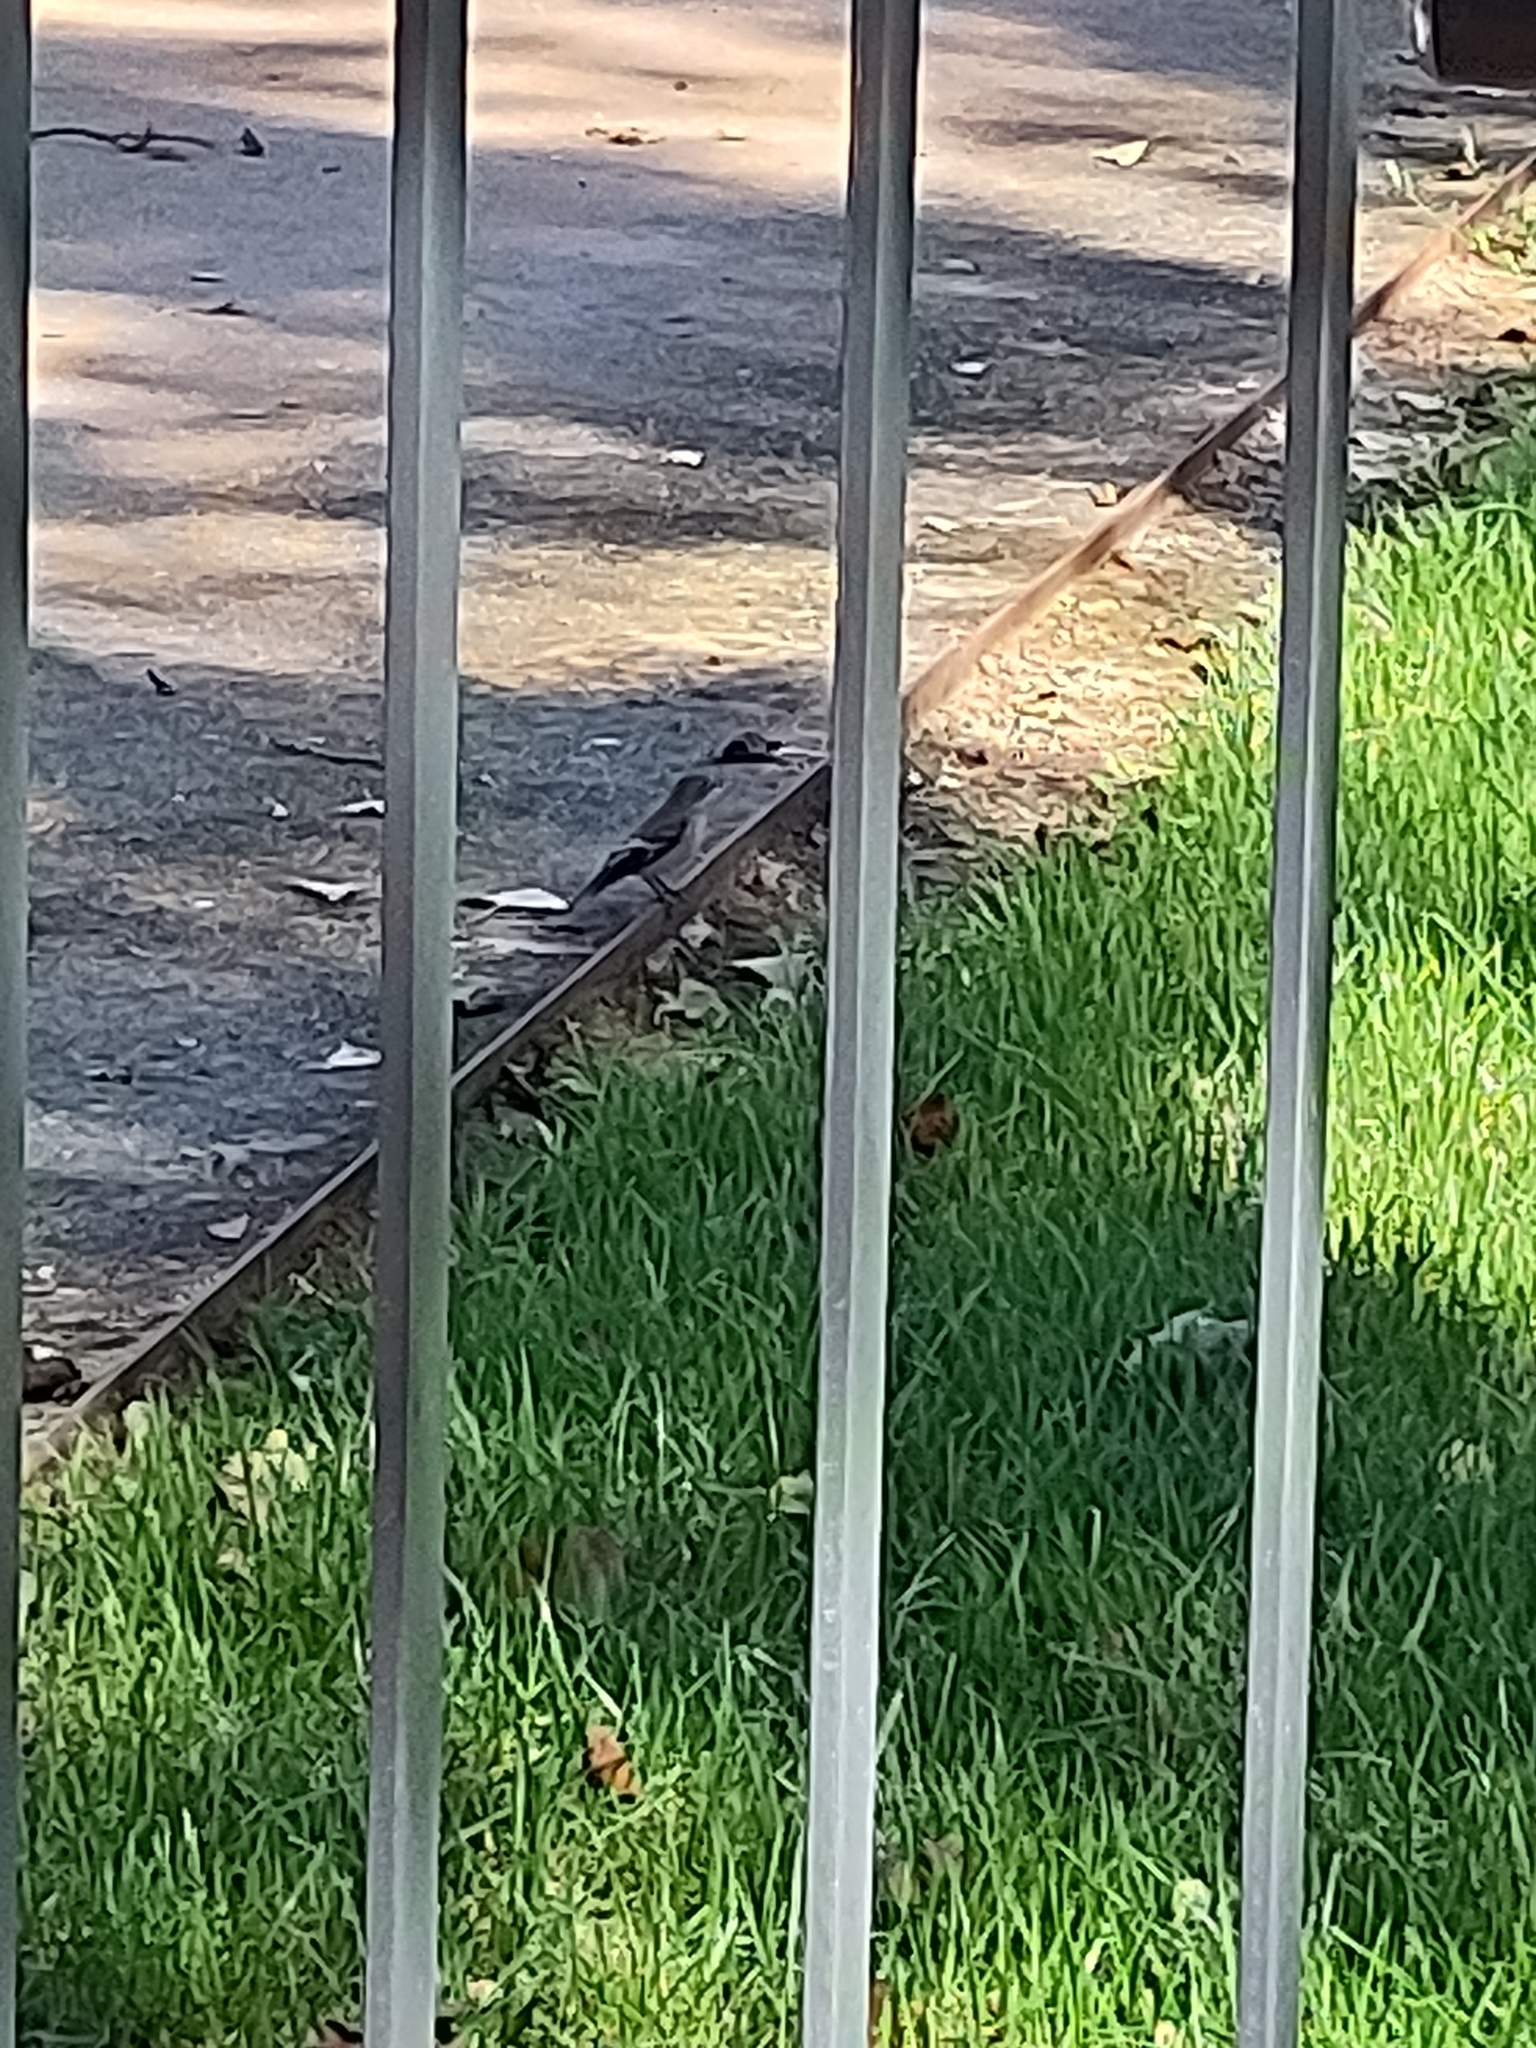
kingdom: Animalia
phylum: Chordata
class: Aves
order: Passeriformes
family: Muscicapidae
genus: Ficedula
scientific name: Ficedula hypoleuca
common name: European pied flycatcher
